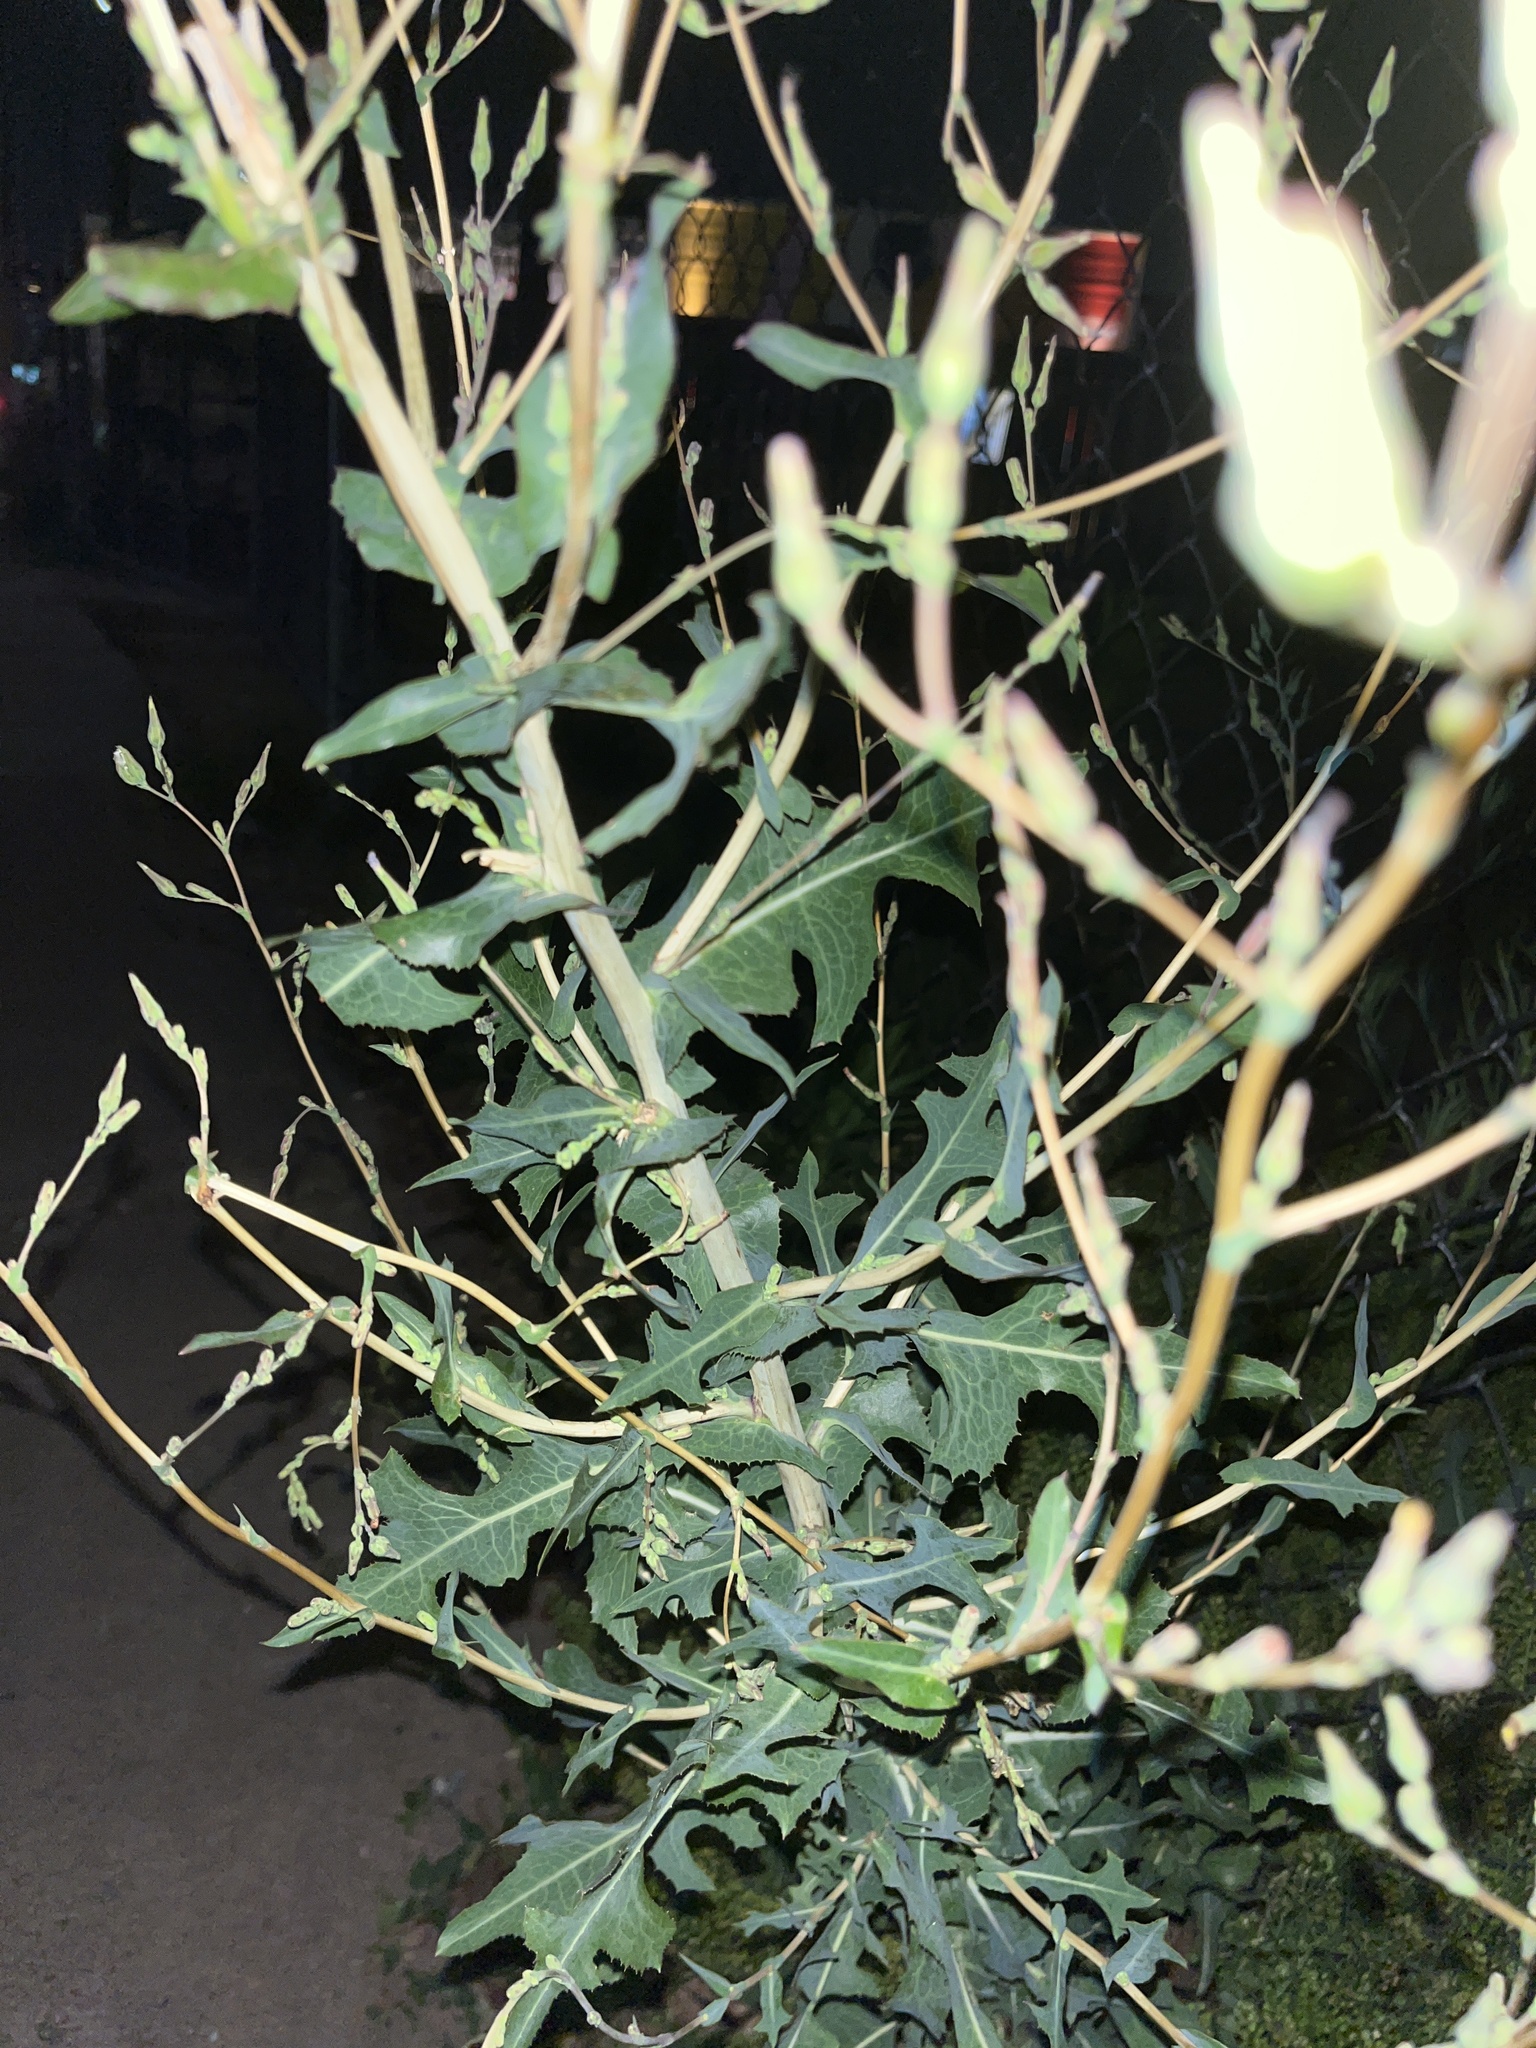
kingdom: Plantae
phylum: Tracheophyta
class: Magnoliopsida
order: Asterales
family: Asteraceae
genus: Lactuca
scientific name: Lactuca serriola
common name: Prickly lettuce
